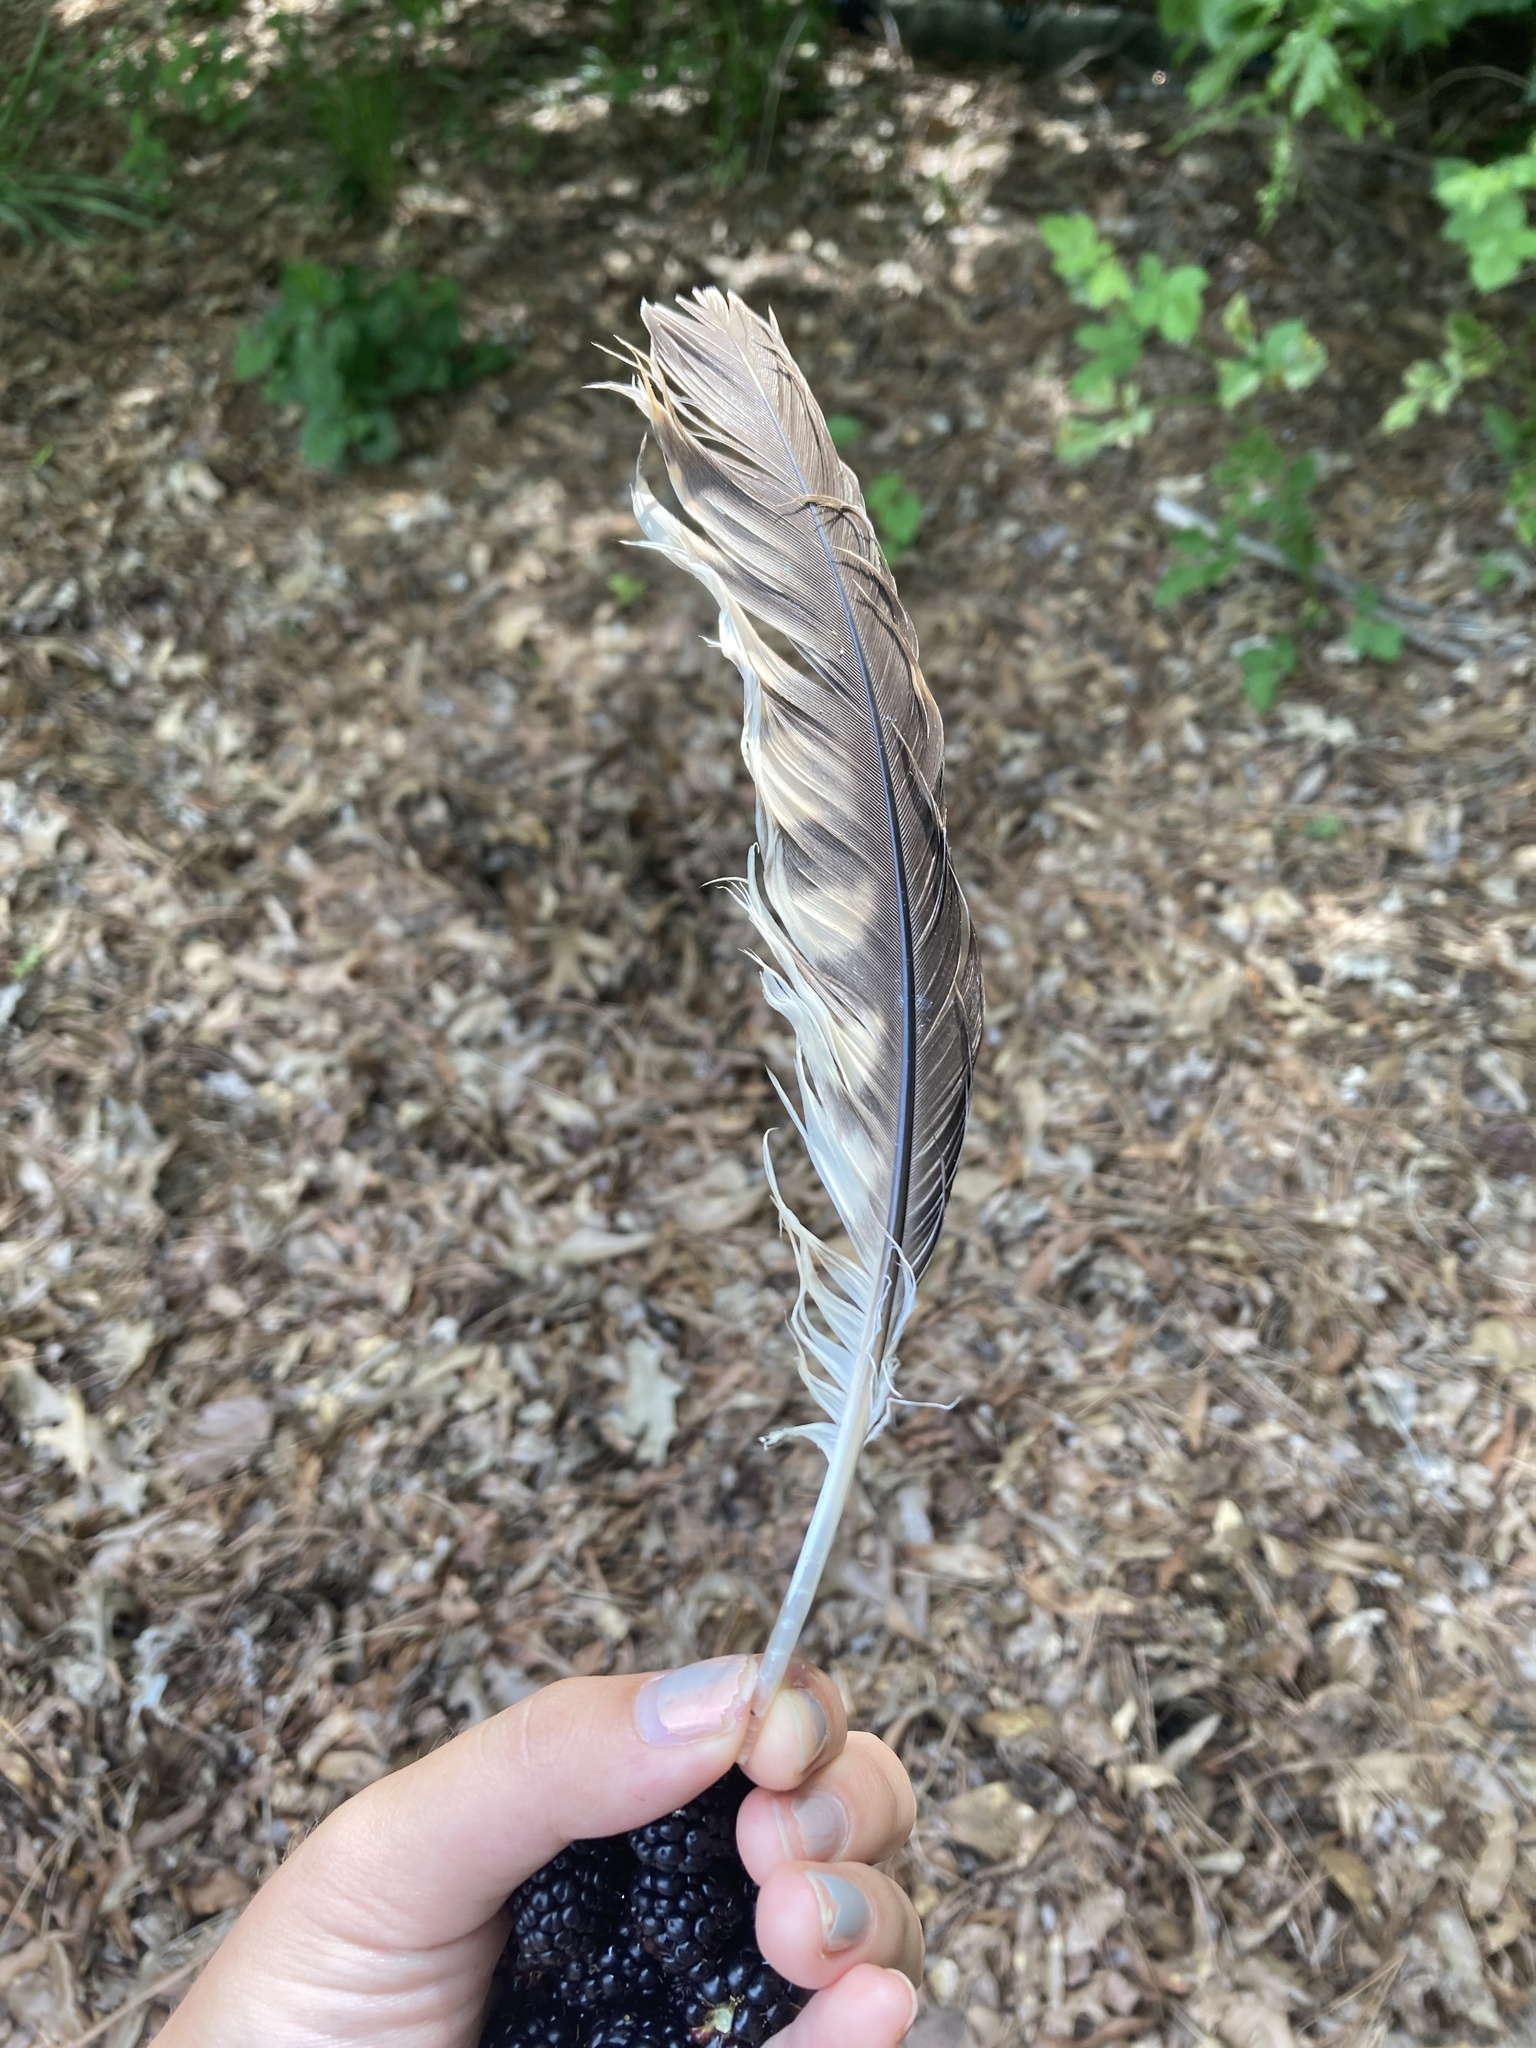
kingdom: Animalia
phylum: Chordata
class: Aves
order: Accipitriformes
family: Accipitridae
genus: Buteo
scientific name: Buteo lineatus
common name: Red-shouldered hawk
